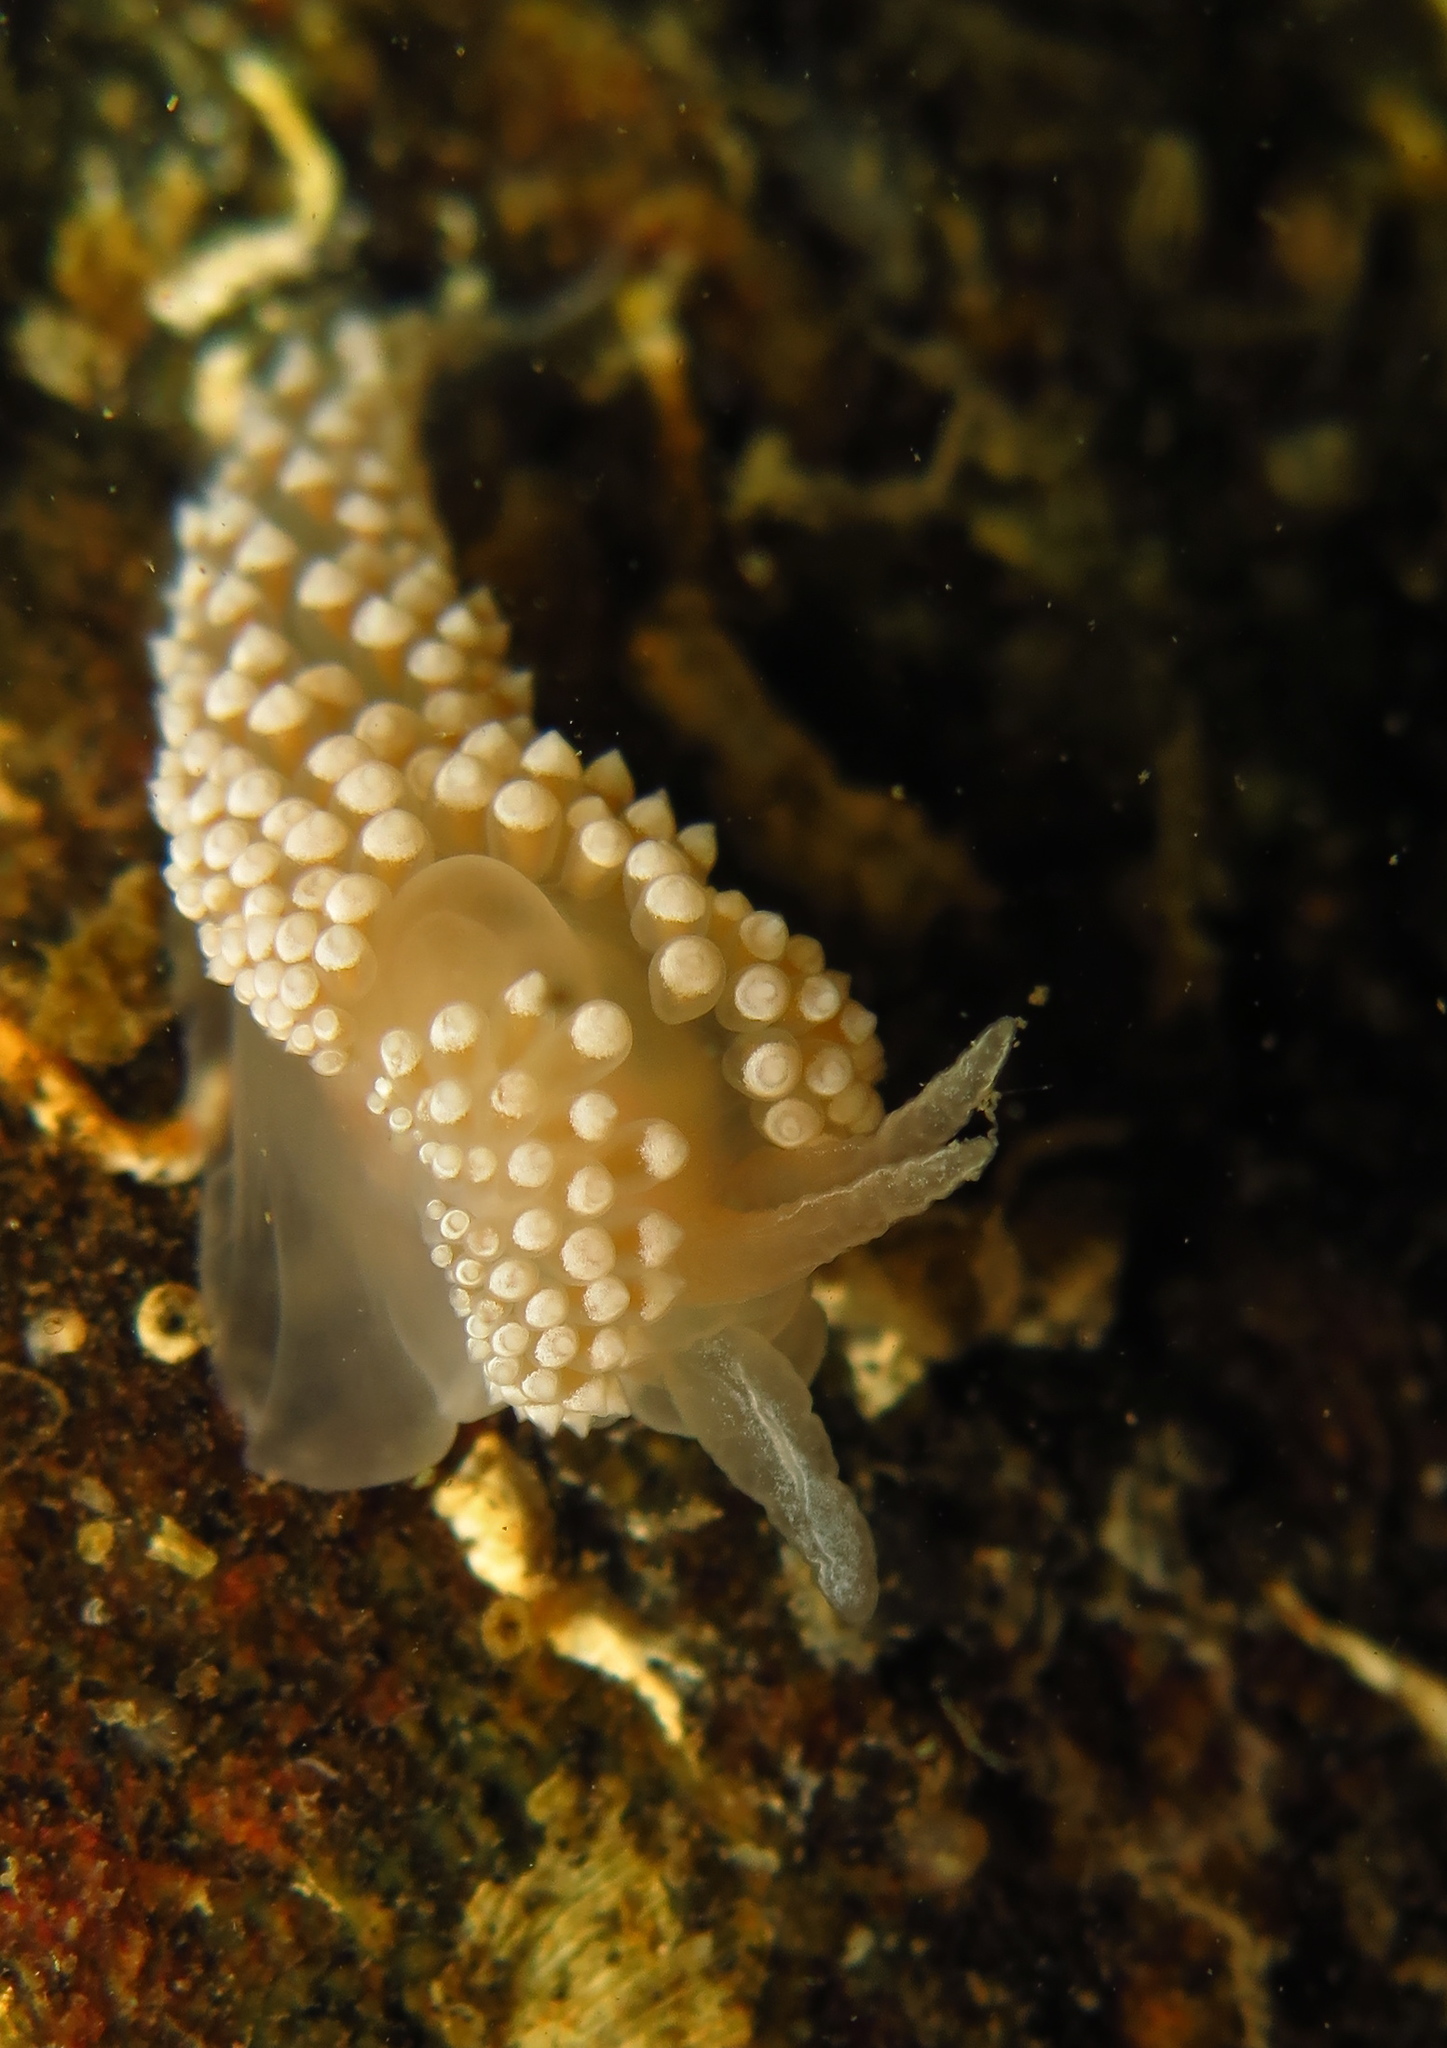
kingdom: Animalia
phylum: Mollusca
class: Gastropoda
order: Nudibranchia
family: Coryphellidae
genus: Coryphella
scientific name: Coryphella verrucosa
